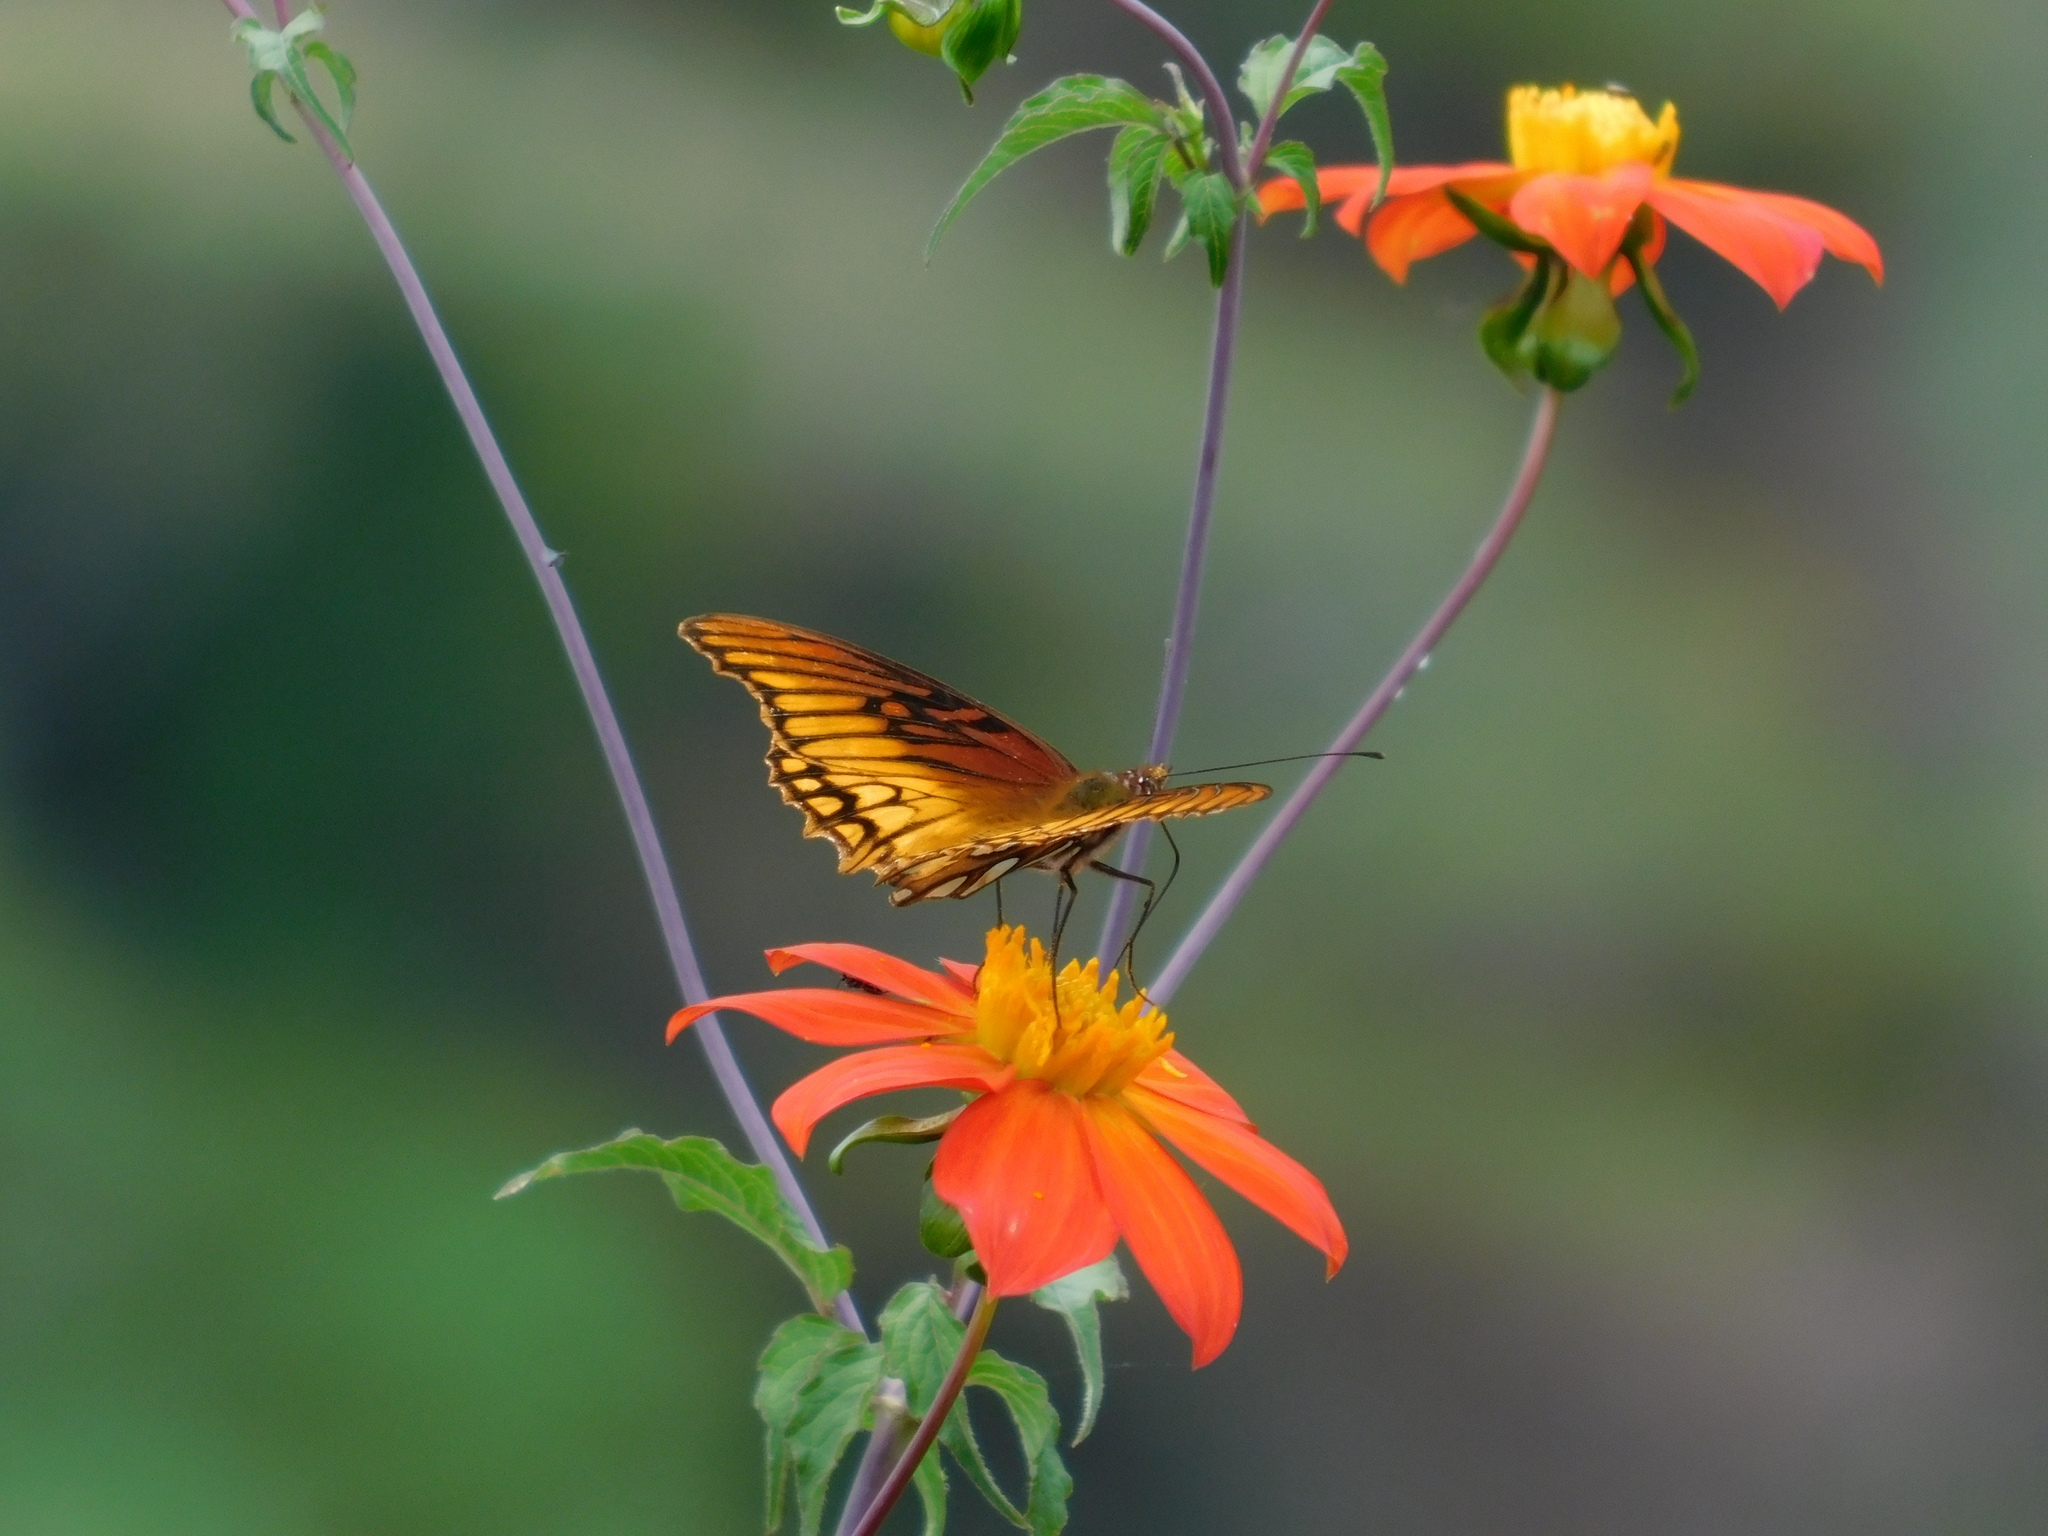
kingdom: Animalia
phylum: Arthropoda
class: Insecta
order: Lepidoptera
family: Nymphalidae
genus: Dione
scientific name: Dione moneta
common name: Mexican silverspot
